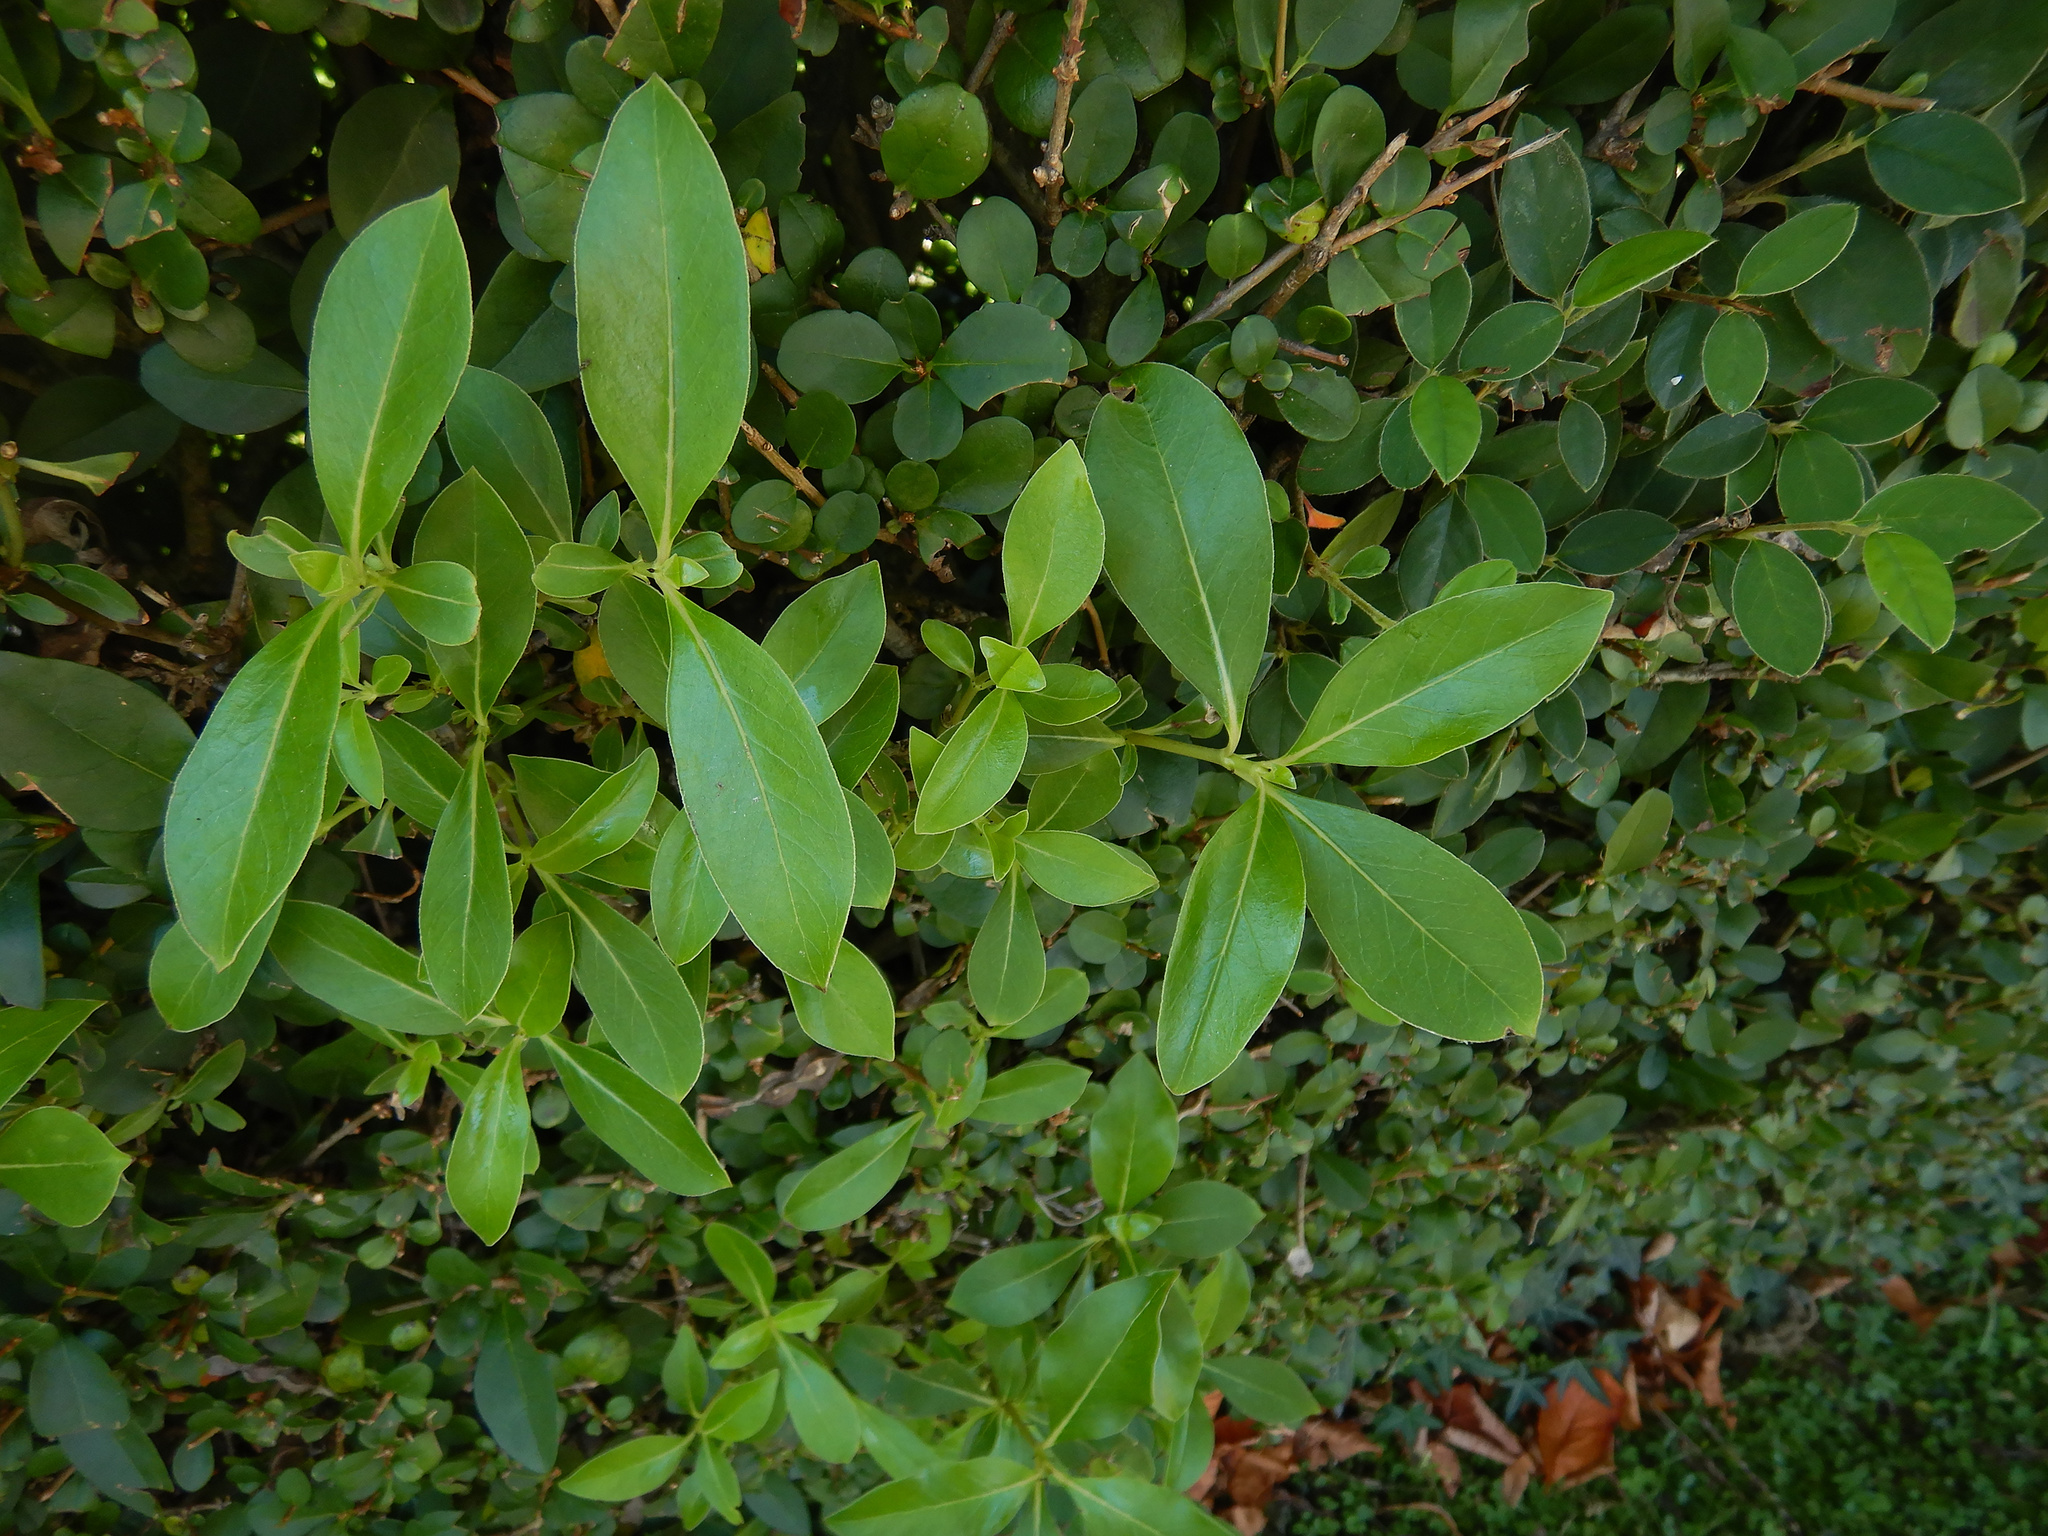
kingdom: Plantae
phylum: Tracheophyta
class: Magnoliopsida
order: Gentianales
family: Rubiaceae
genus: Coprosma
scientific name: Coprosma robusta
